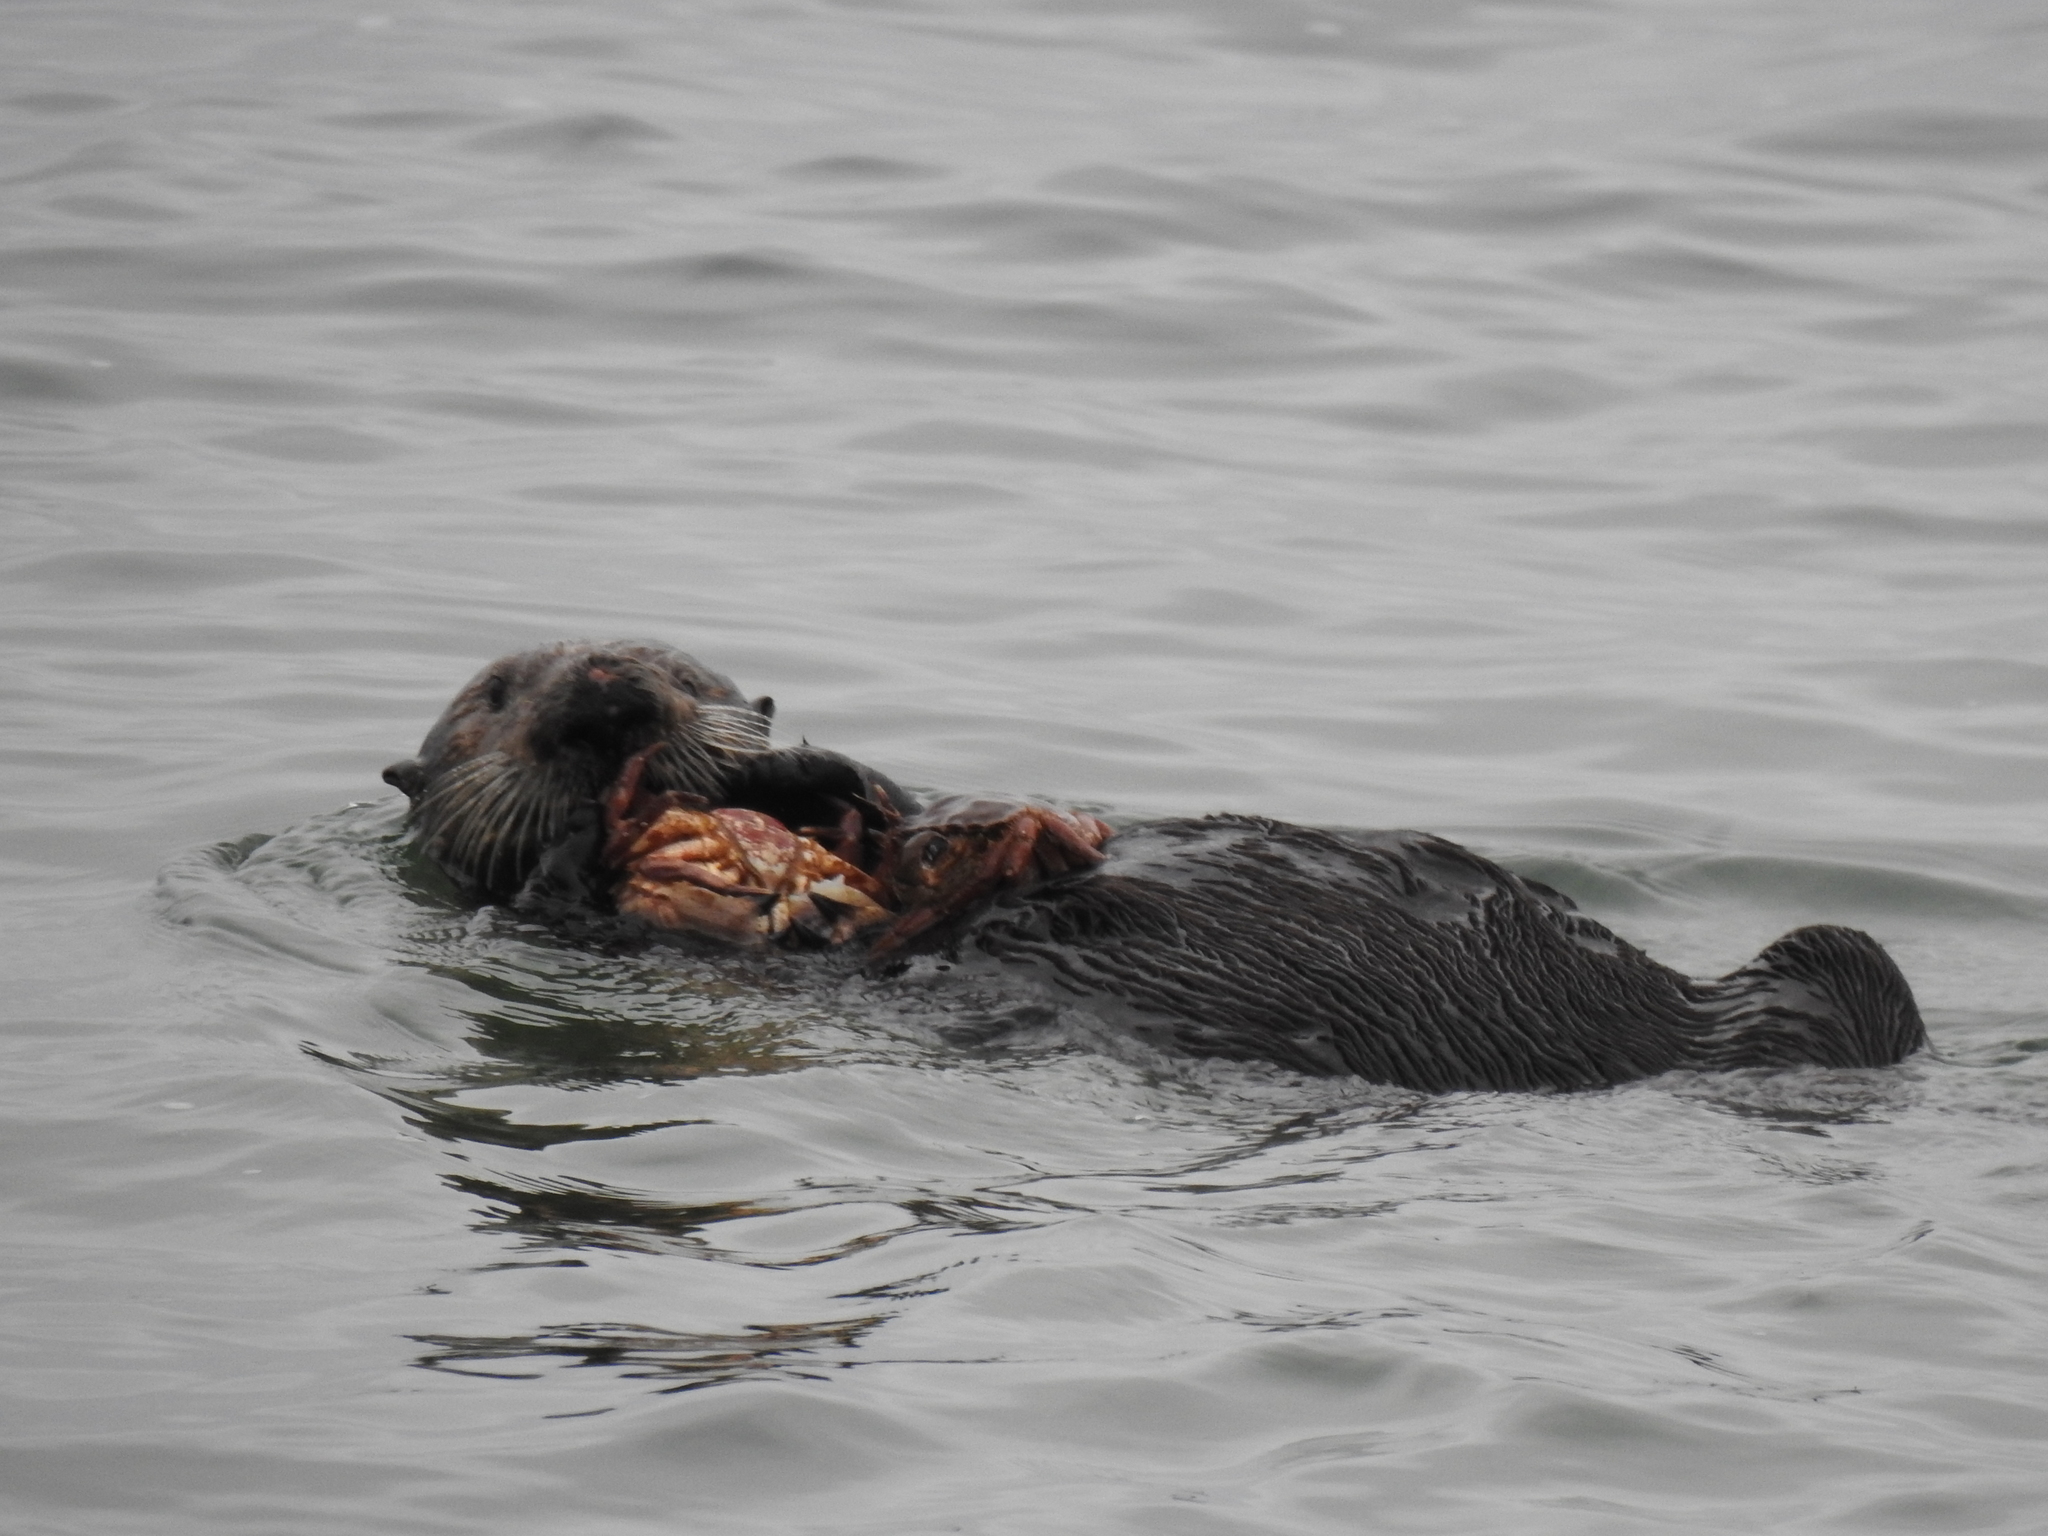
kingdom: Animalia
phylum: Chordata
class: Mammalia
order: Carnivora
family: Mustelidae
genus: Enhydra
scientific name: Enhydra lutris
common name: Sea otter
